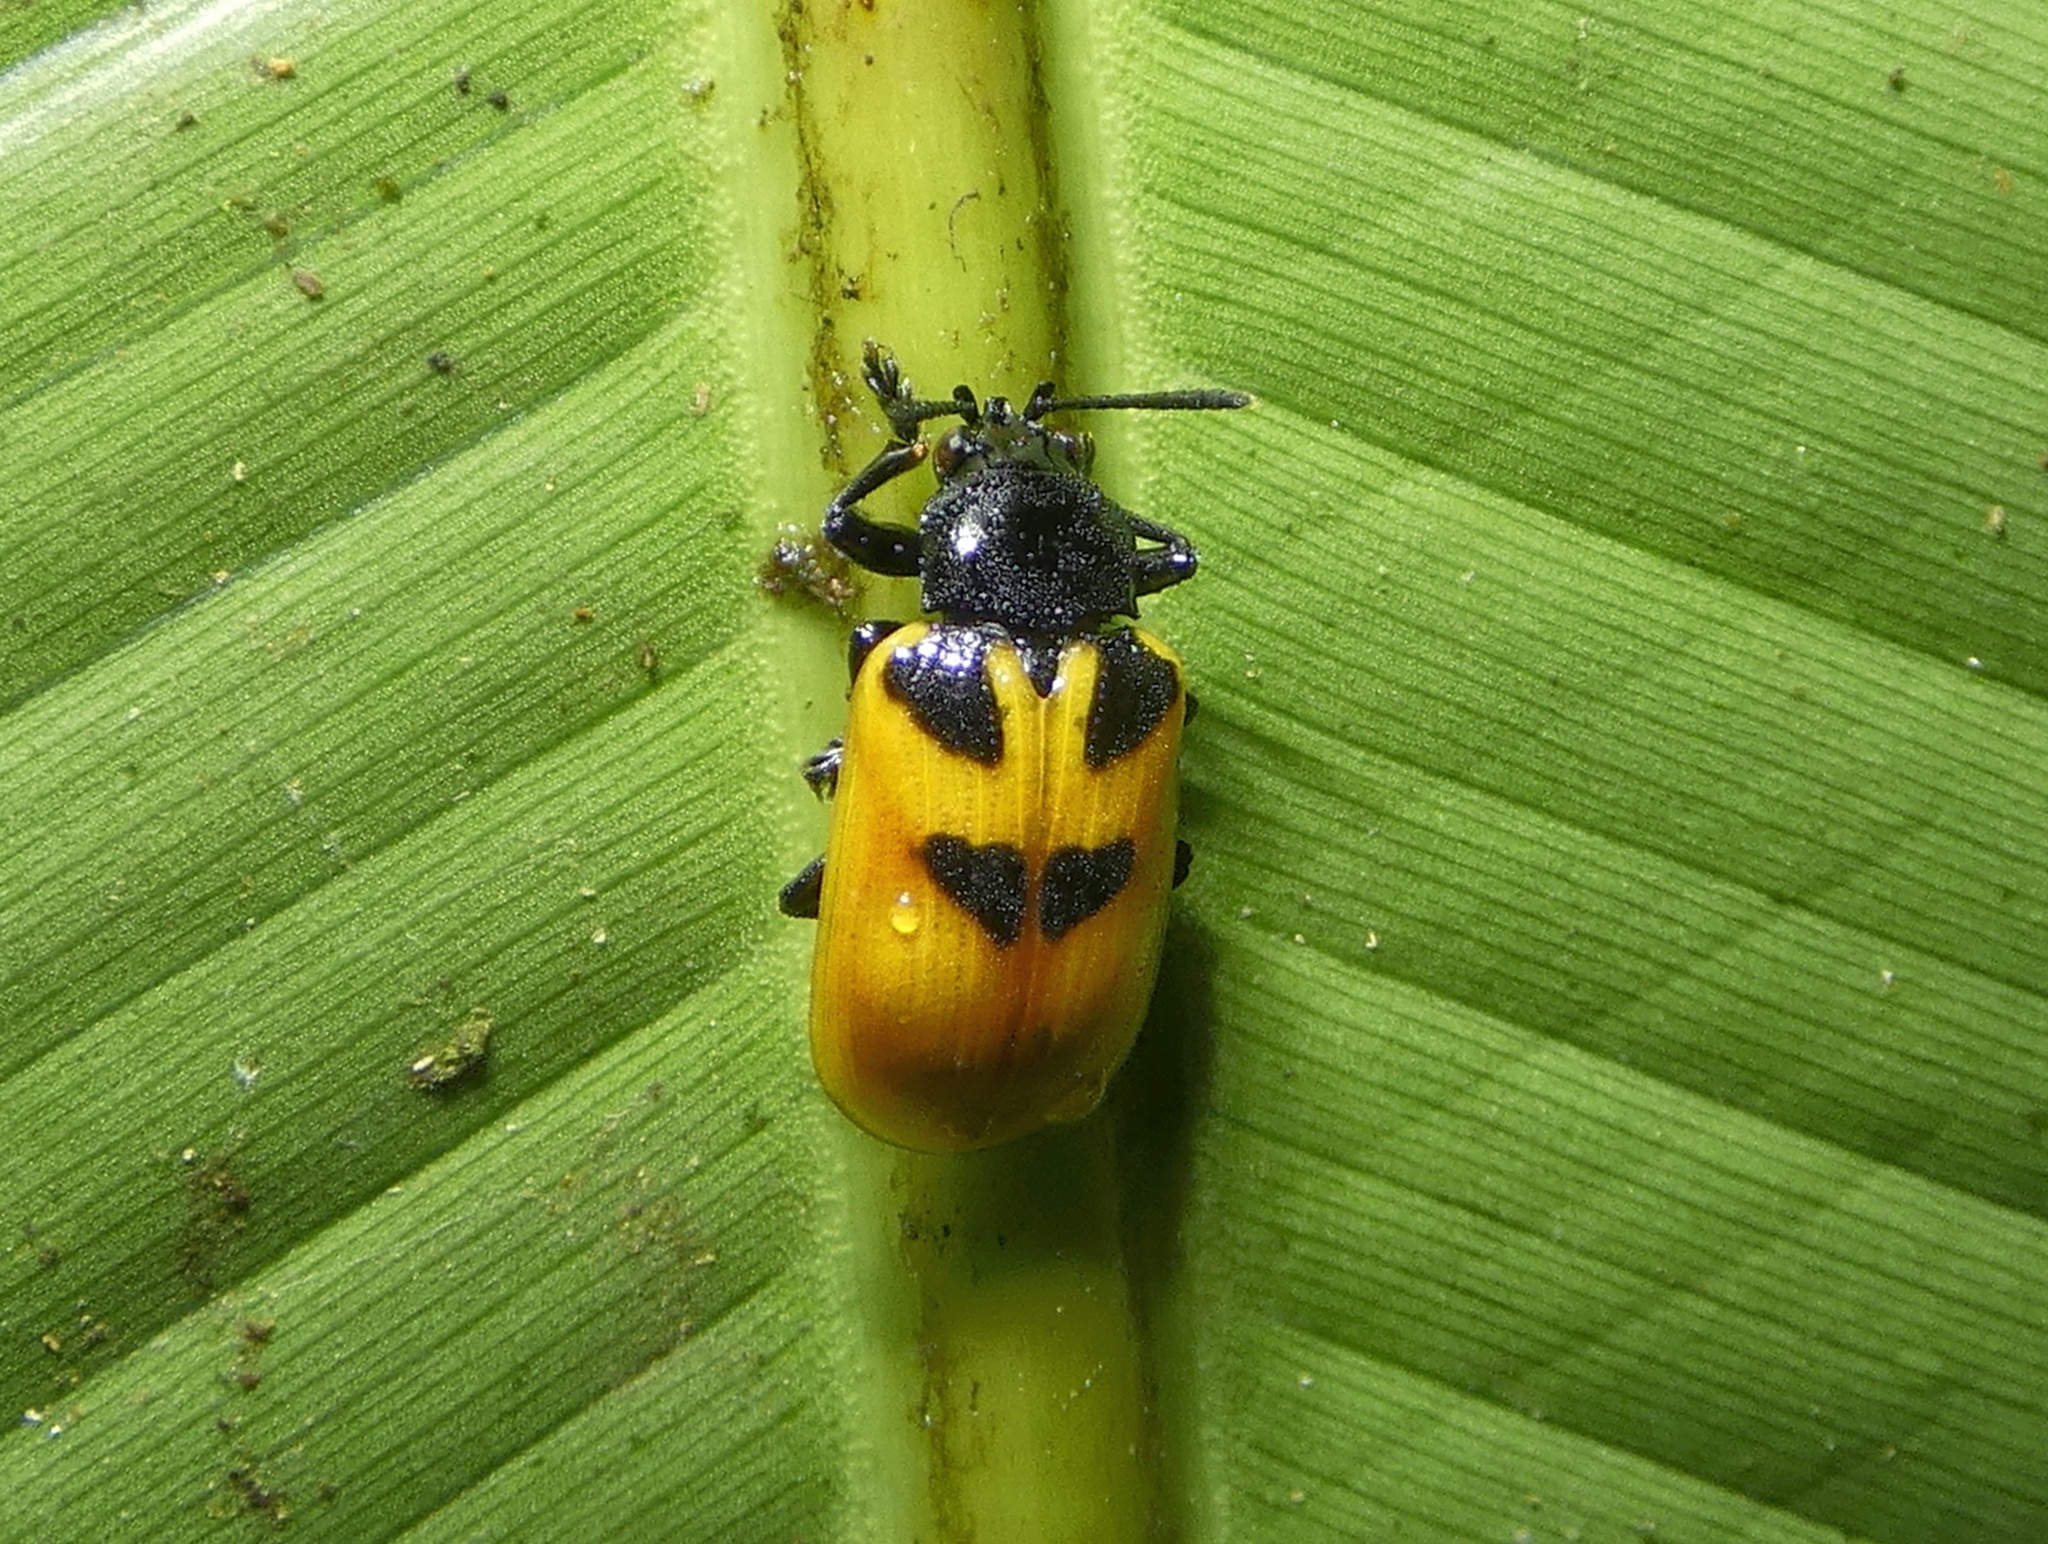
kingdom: Animalia
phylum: Arthropoda
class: Insecta
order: Coleoptera
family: Chrysomelidae
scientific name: Chrysomelidae
